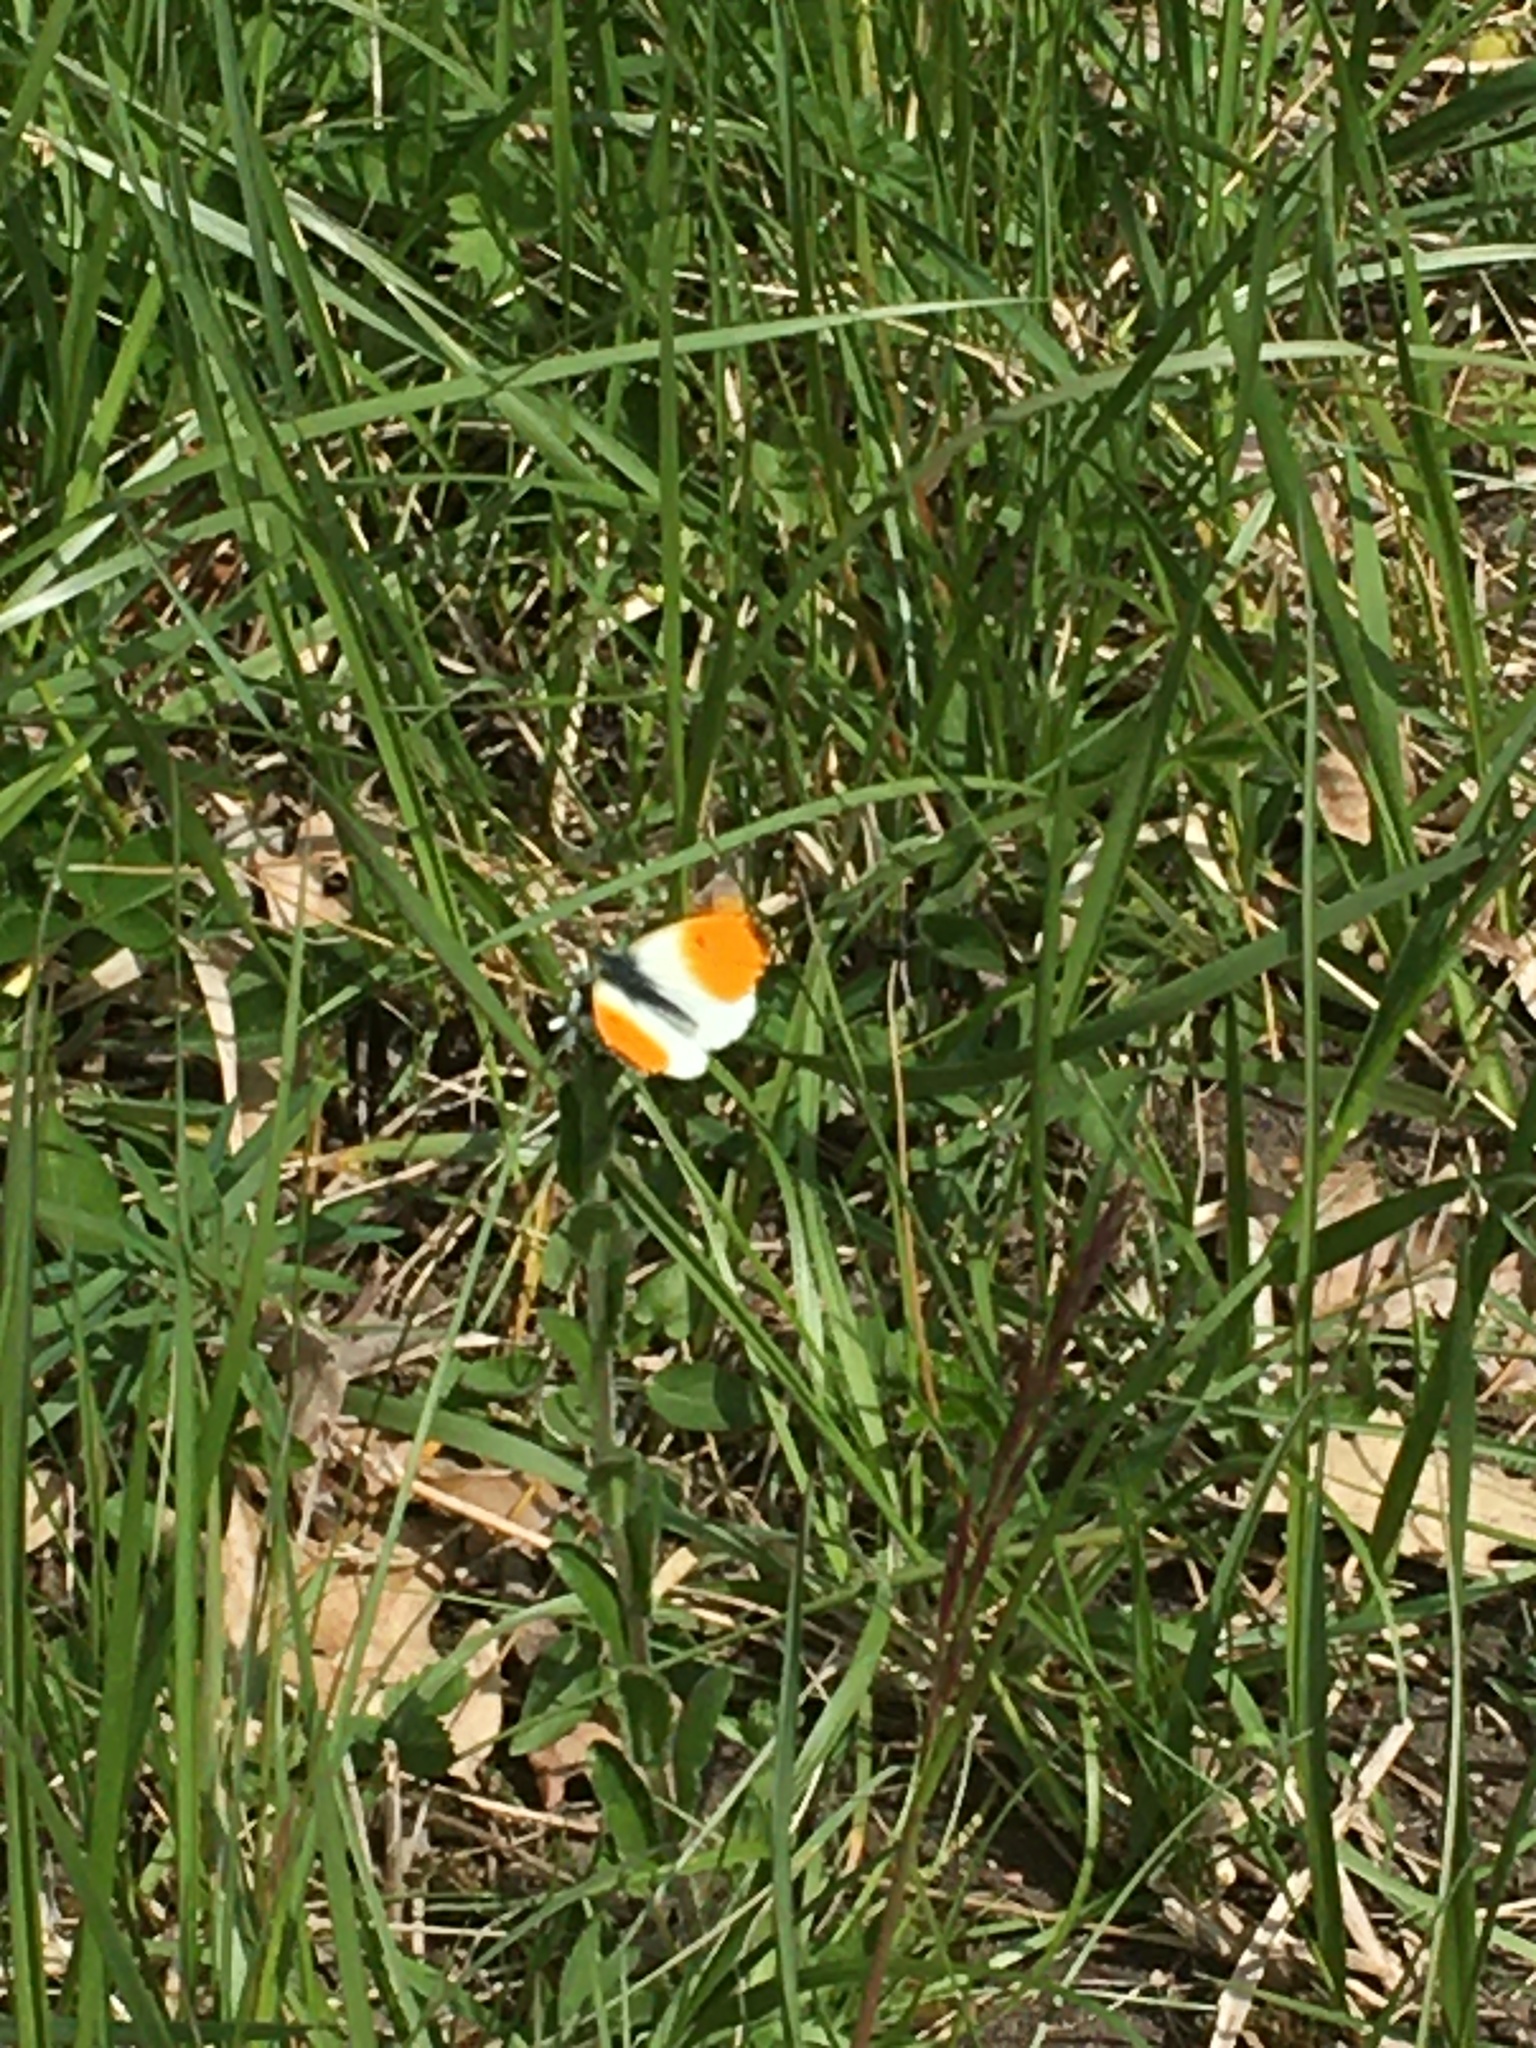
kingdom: Animalia
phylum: Arthropoda
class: Insecta
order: Lepidoptera
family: Pieridae
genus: Anthocharis
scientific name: Anthocharis cardamines
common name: Orange-tip
